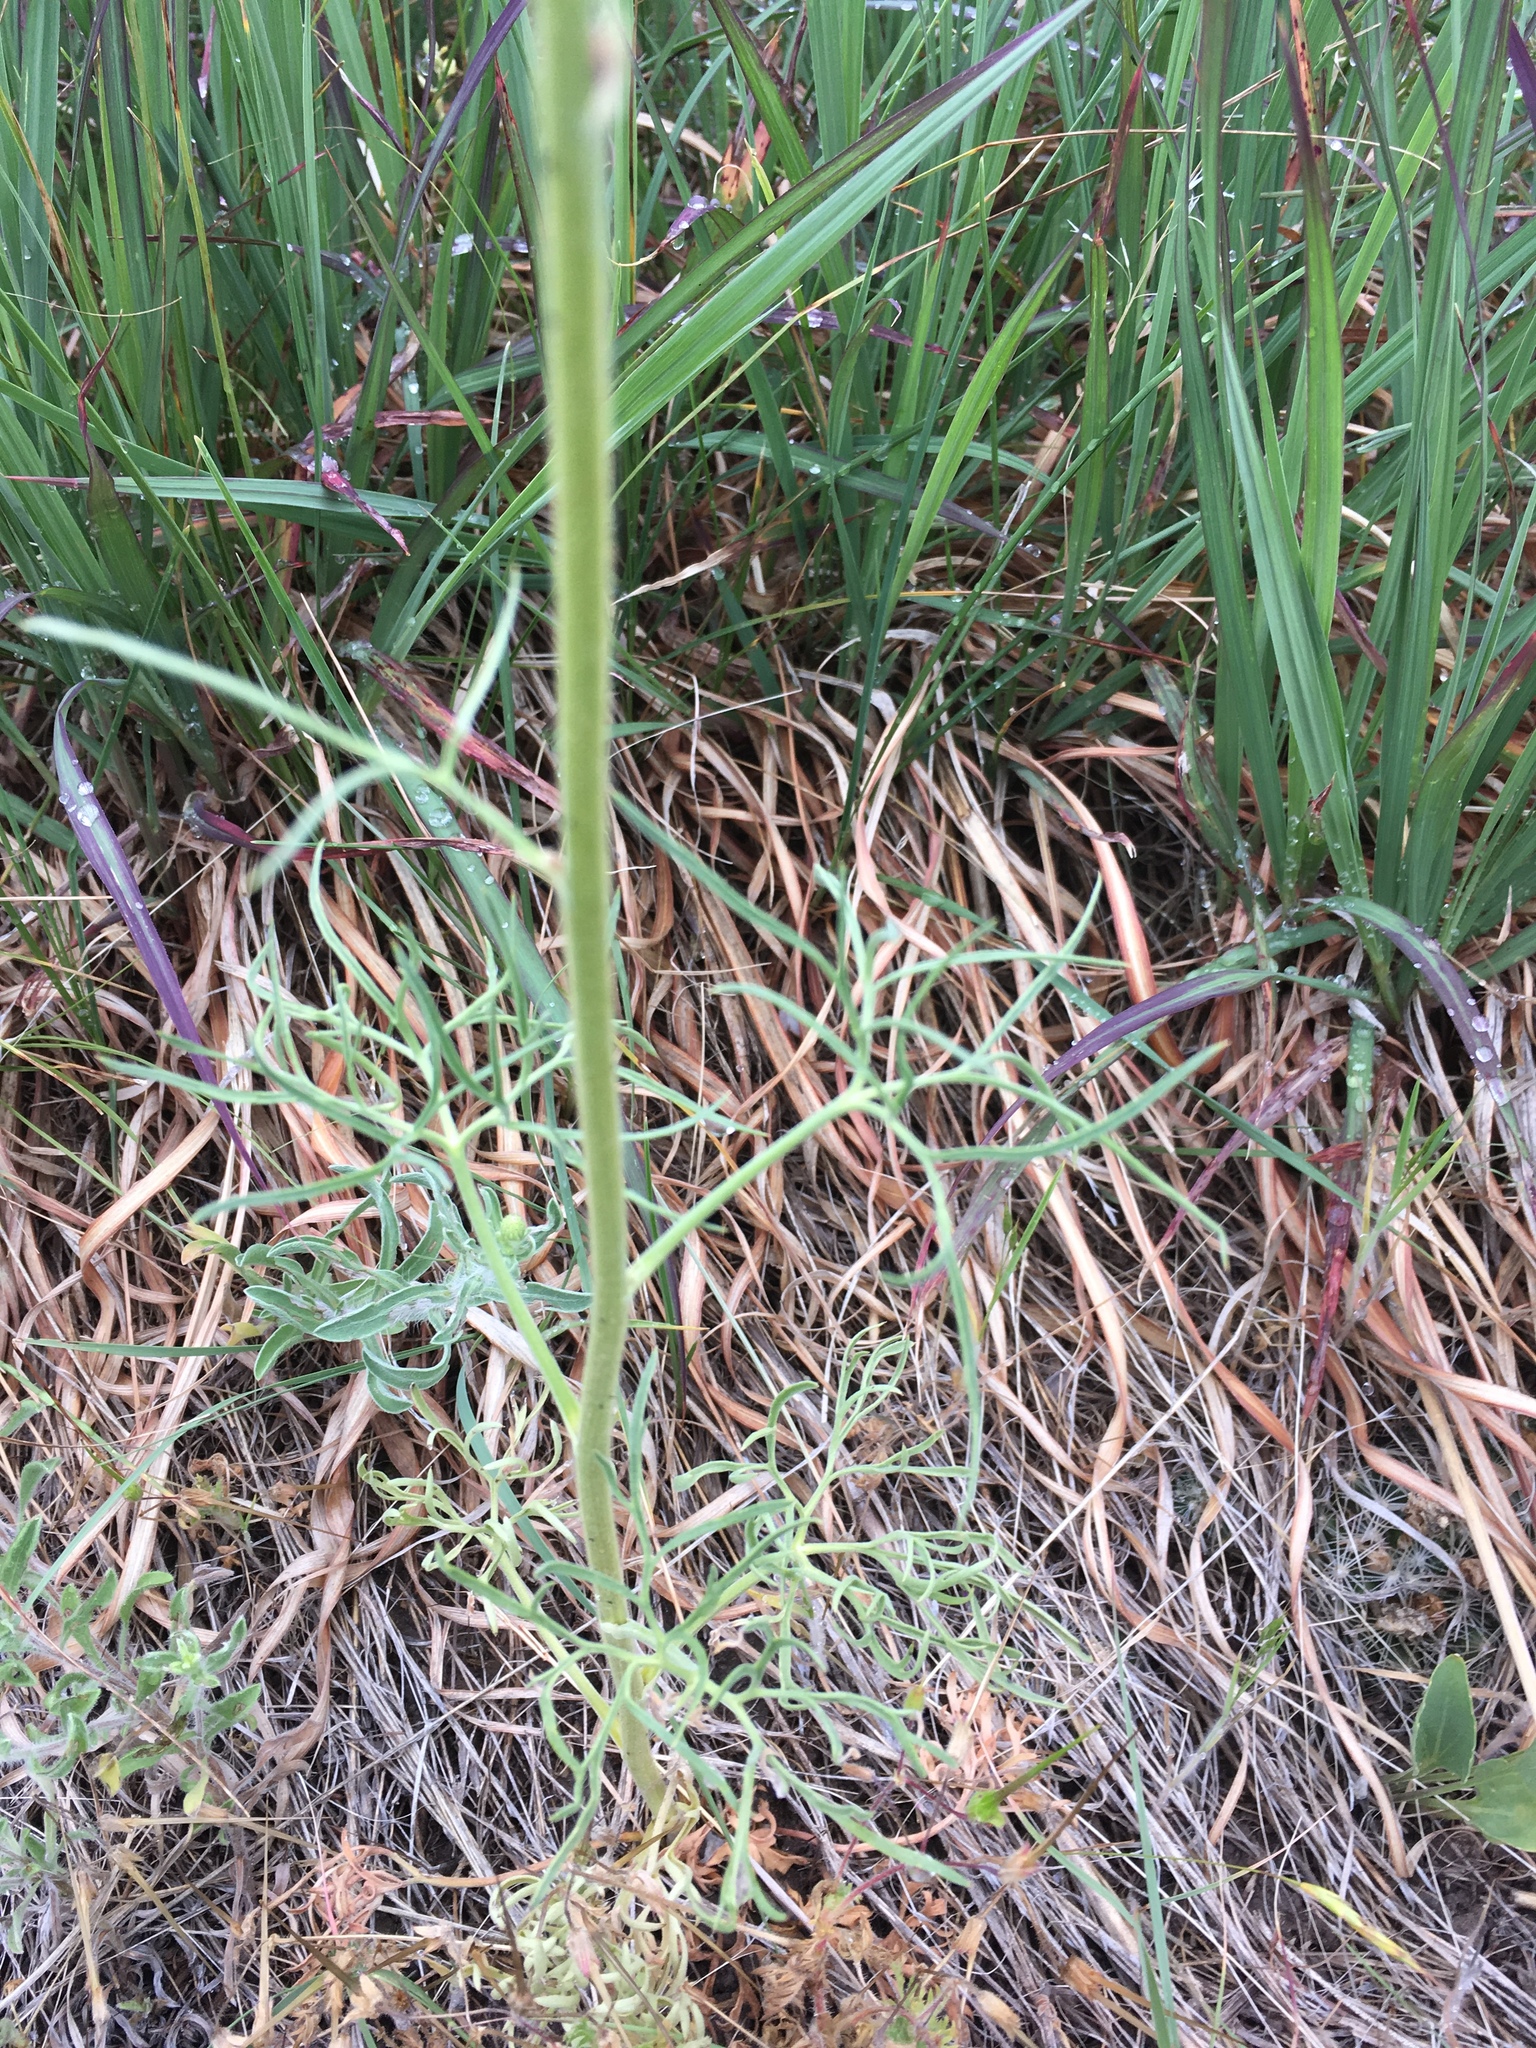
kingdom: Plantae
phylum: Tracheophyta
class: Magnoliopsida
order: Ranunculales
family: Ranunculaceae
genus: Delphinium
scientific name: Delphinium carolinianum
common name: Carolina larkspur
